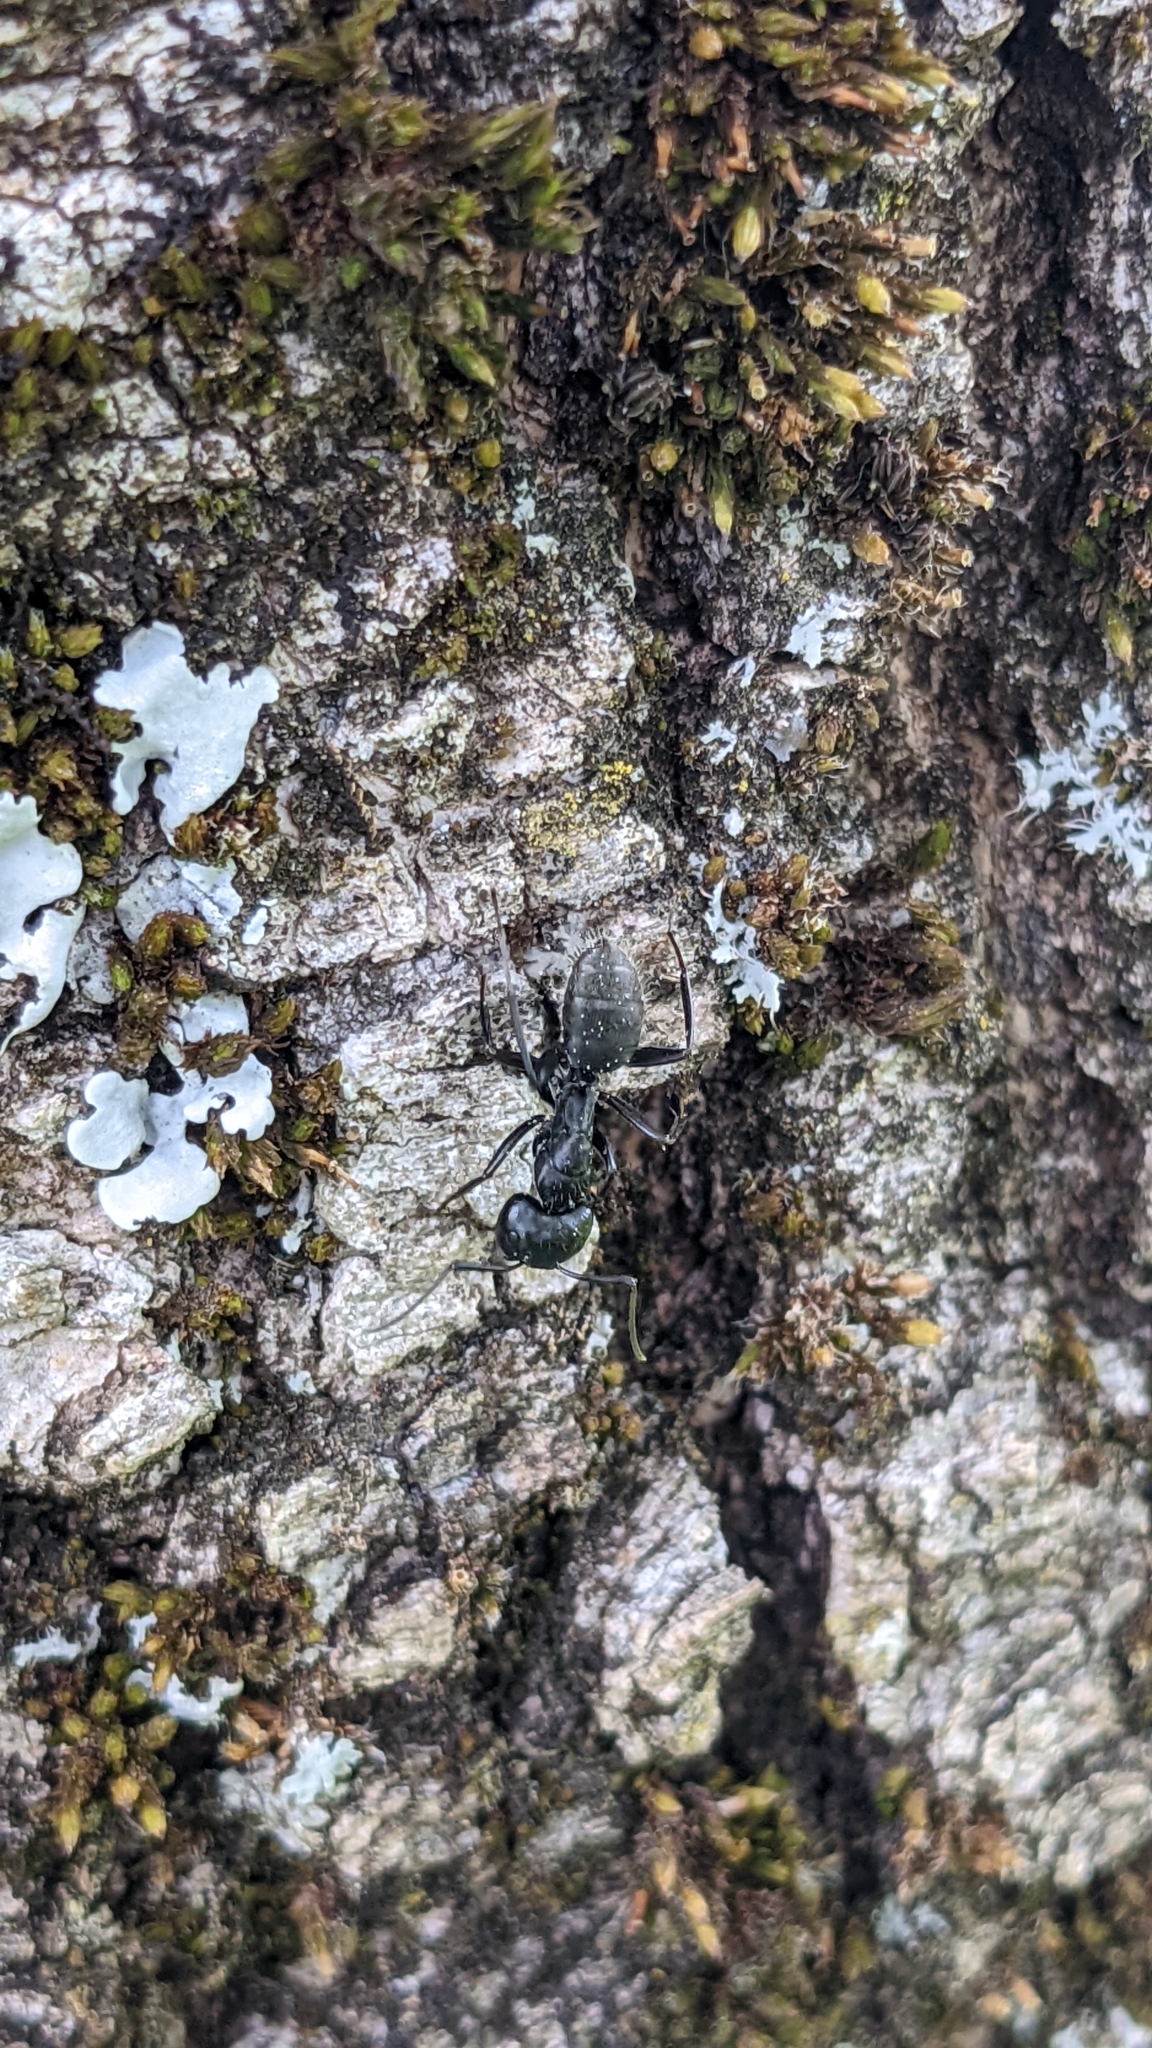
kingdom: Animalia
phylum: Arthropoda
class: Insecta
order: Hymenoptera
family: Formicidae
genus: Camponotus
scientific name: Camponotus vagus
